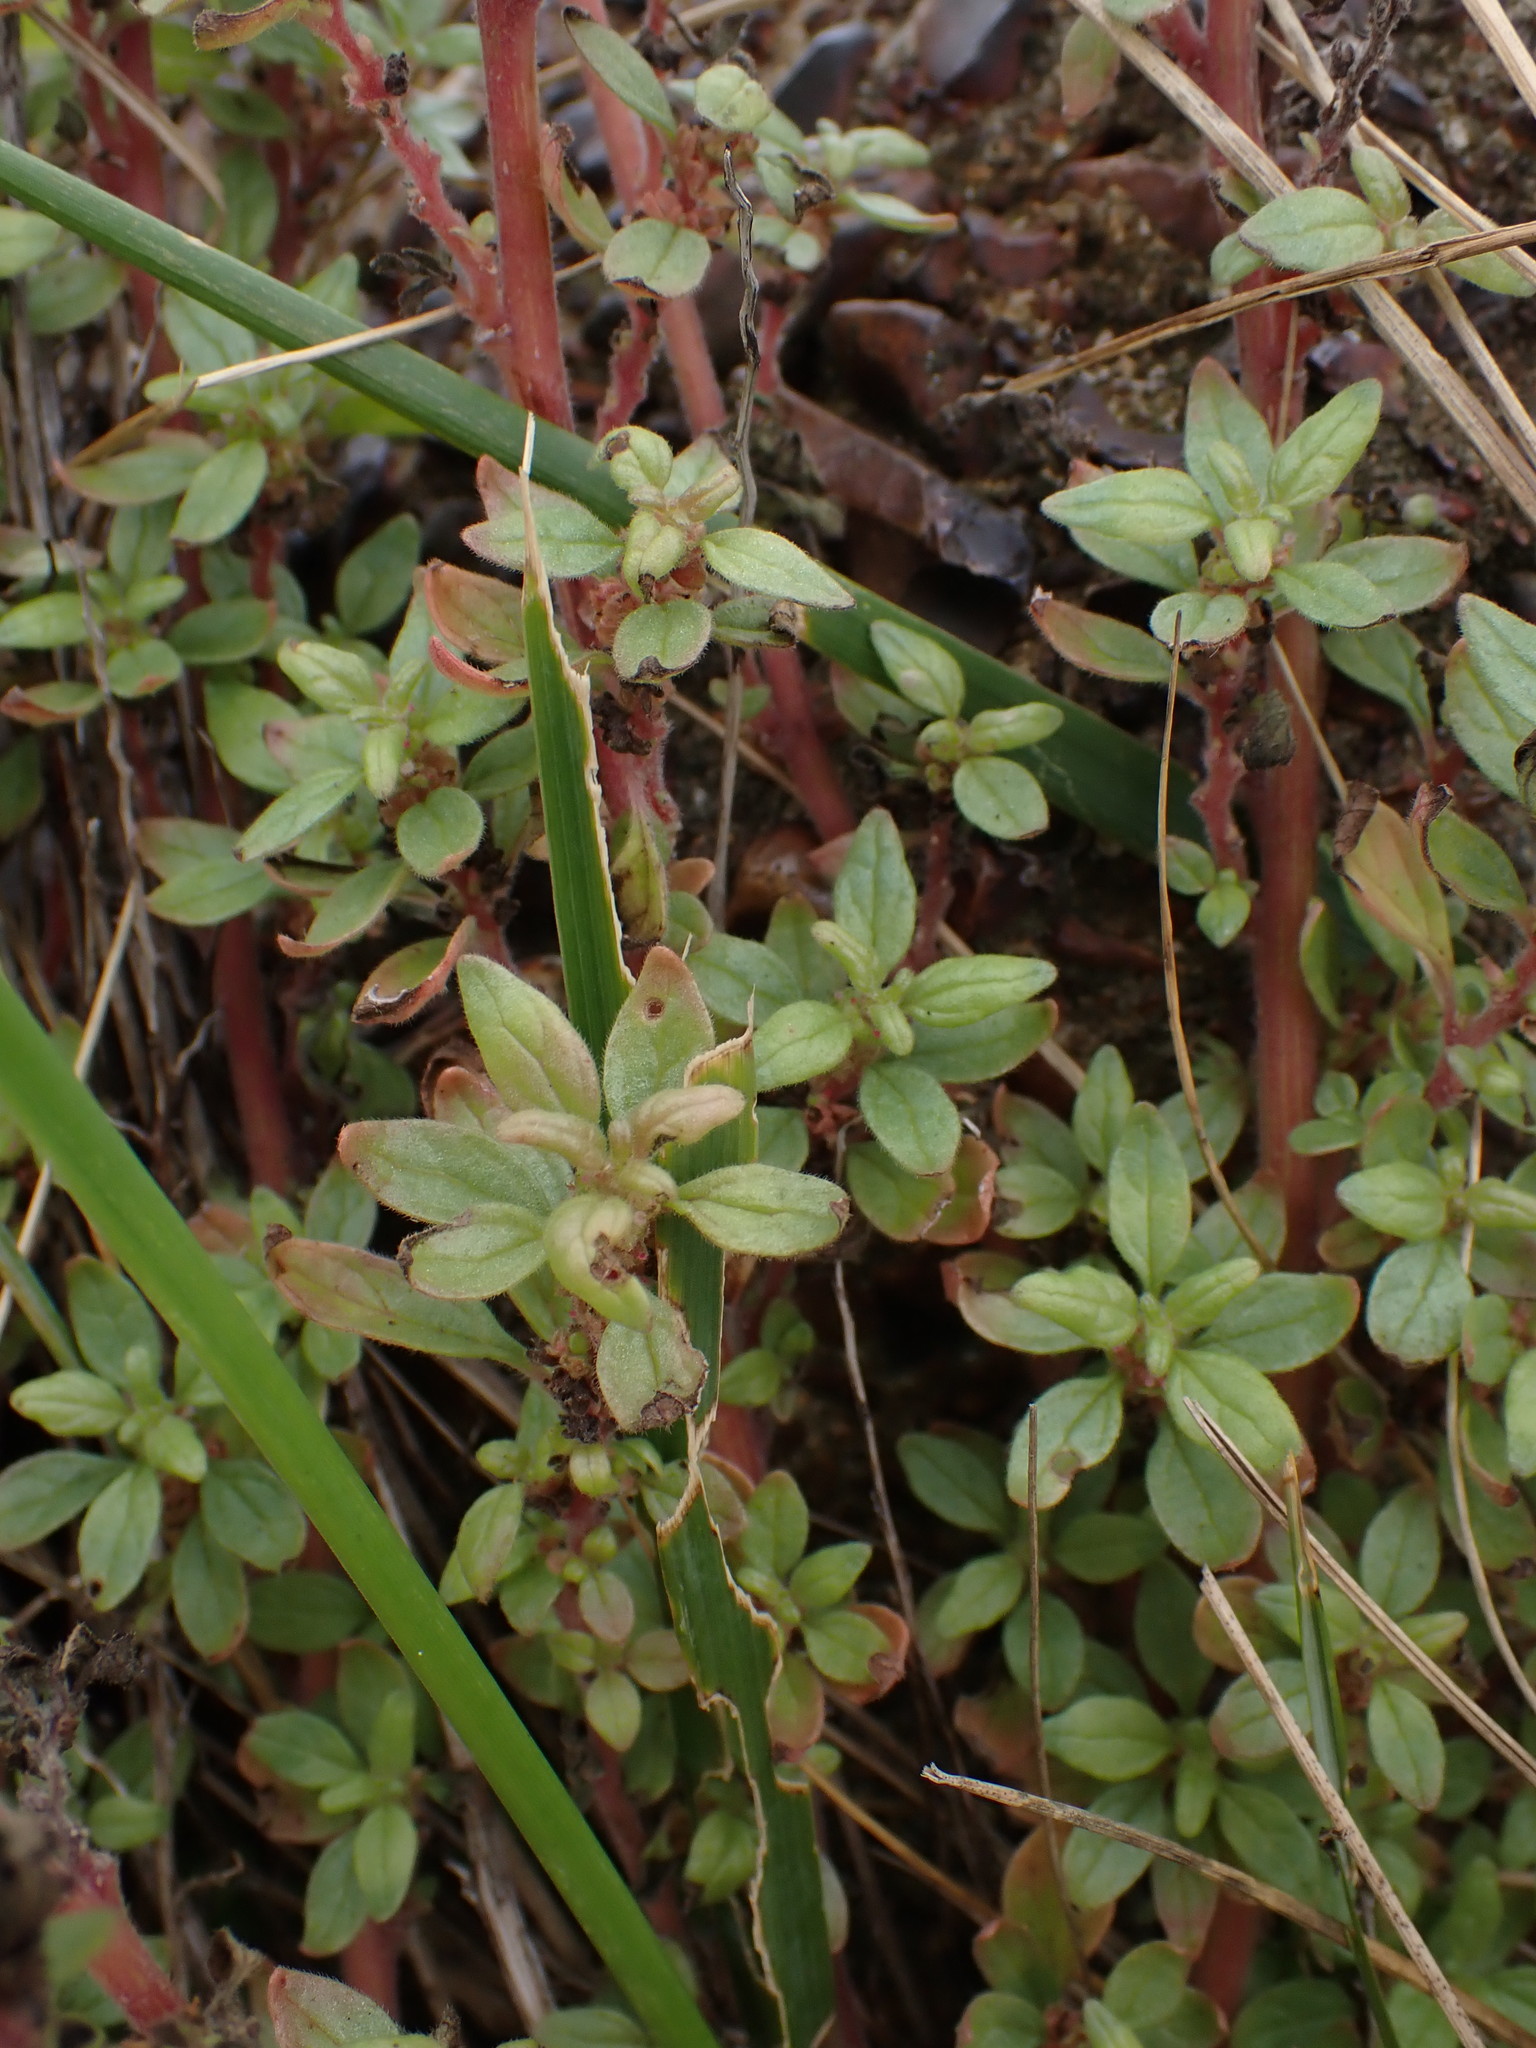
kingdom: Plantae
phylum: Tracheophyta
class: Magnoliopsida
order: Rosales
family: Urticaceae
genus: Parietaria
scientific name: Parietaria judaica
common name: Pellitory-of-the-wall
